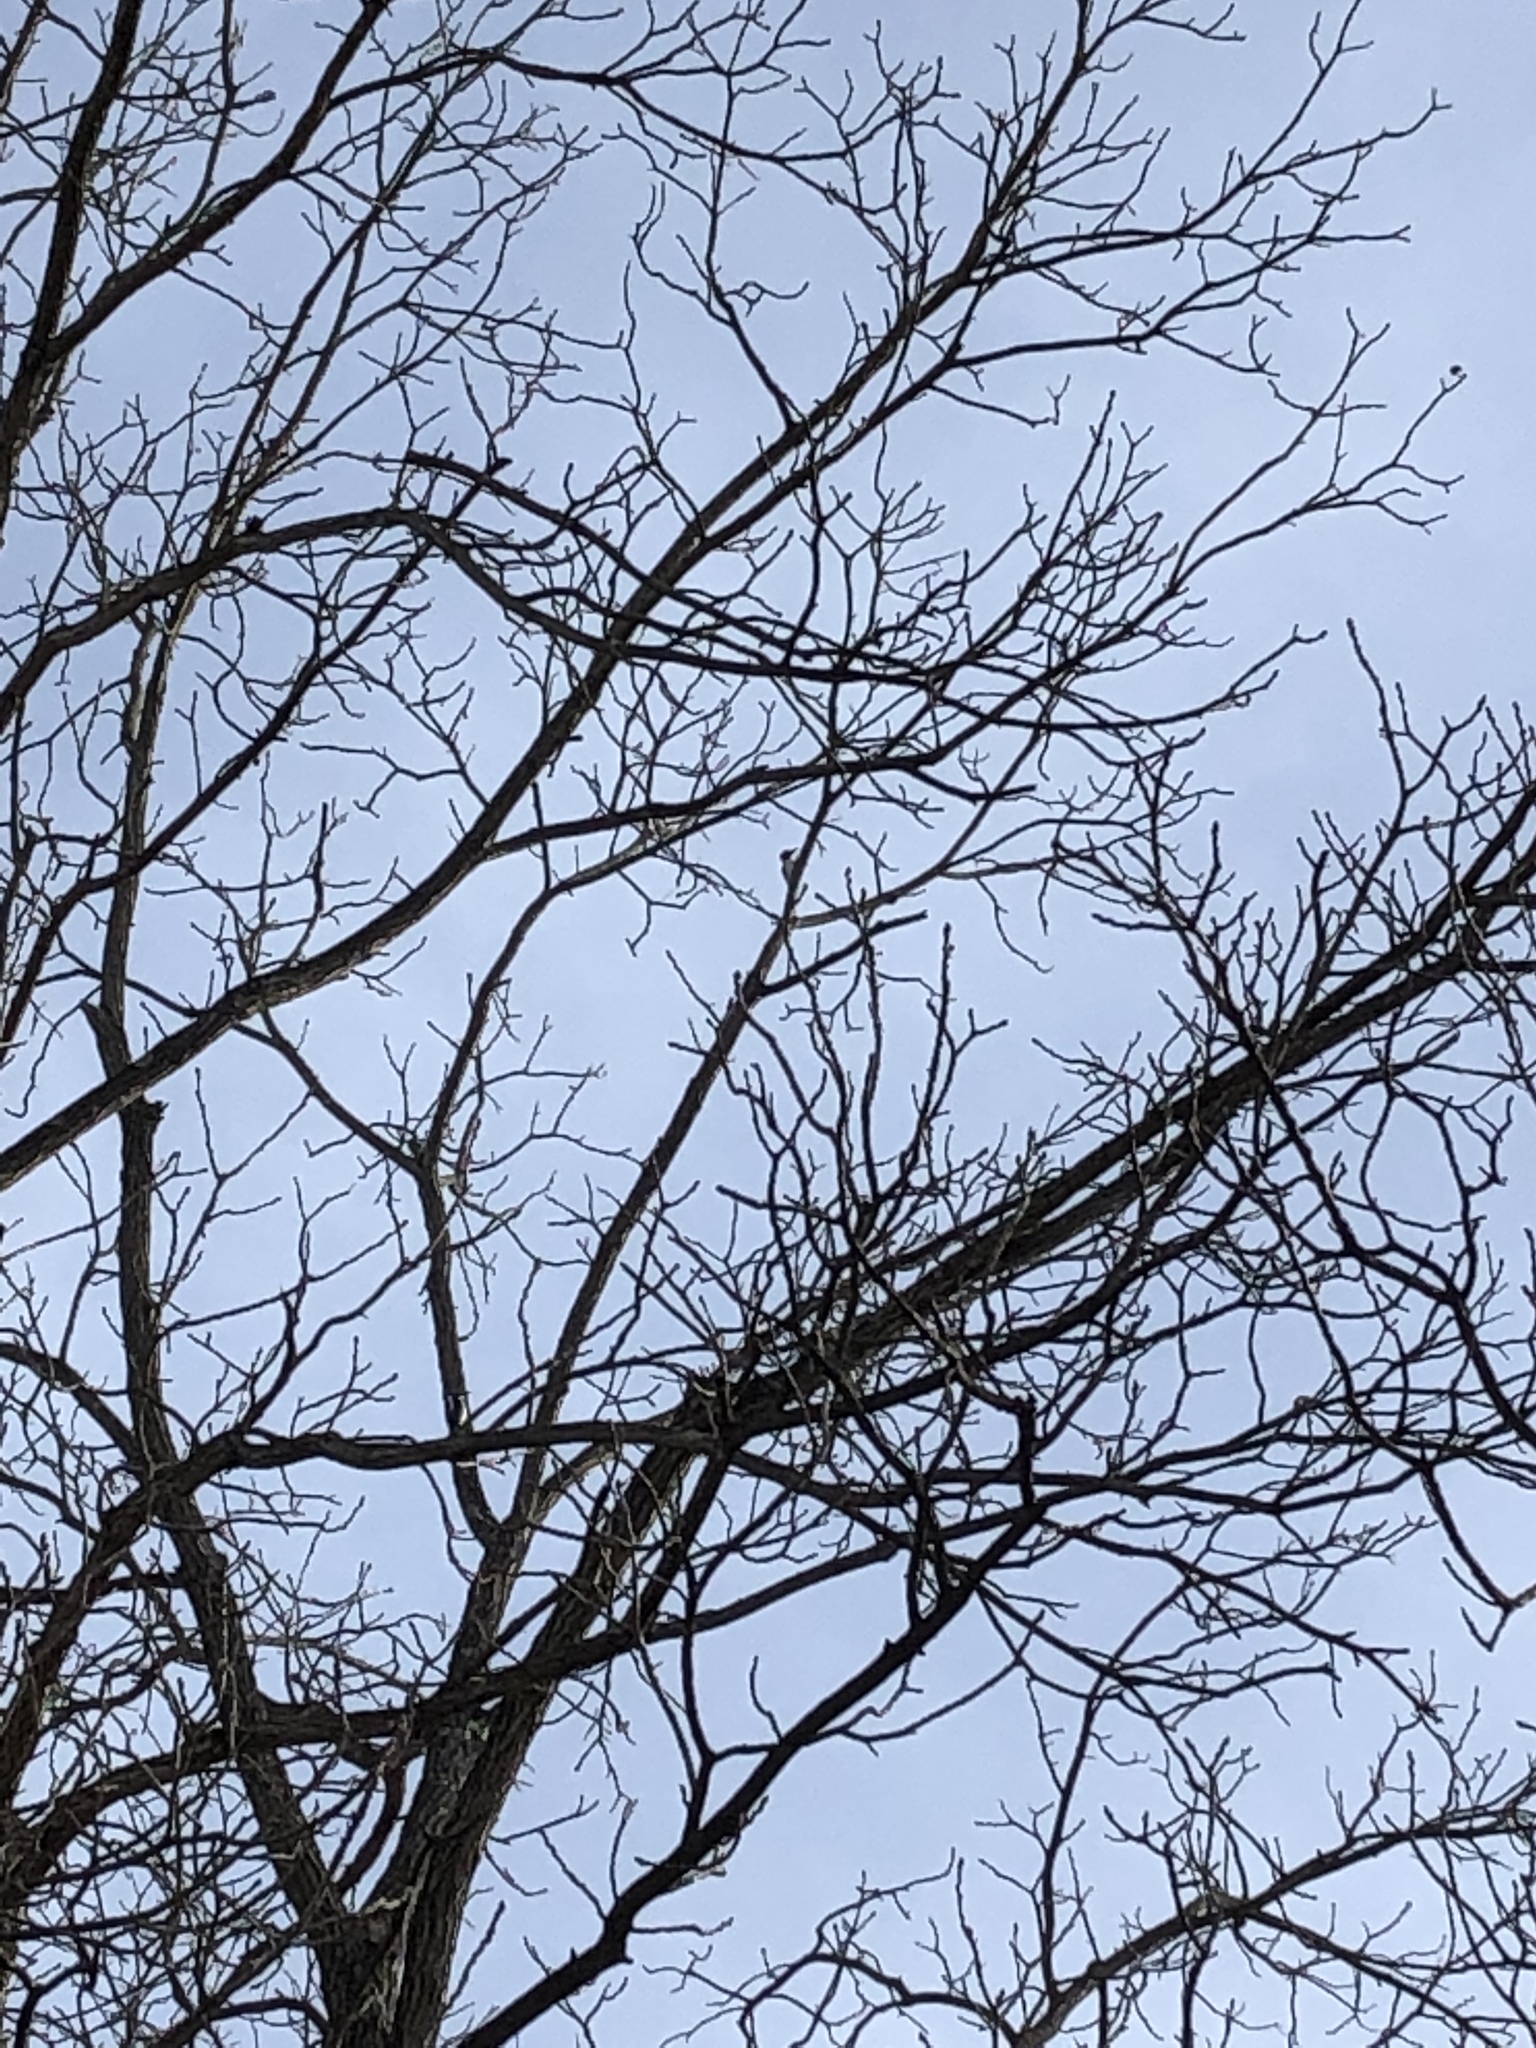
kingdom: Animalia
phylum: Chordata
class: Aves
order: Piciformes
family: Picidae
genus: Leuconotopicus
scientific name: Leuconotopicus villosus
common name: Hairy woodpecker
